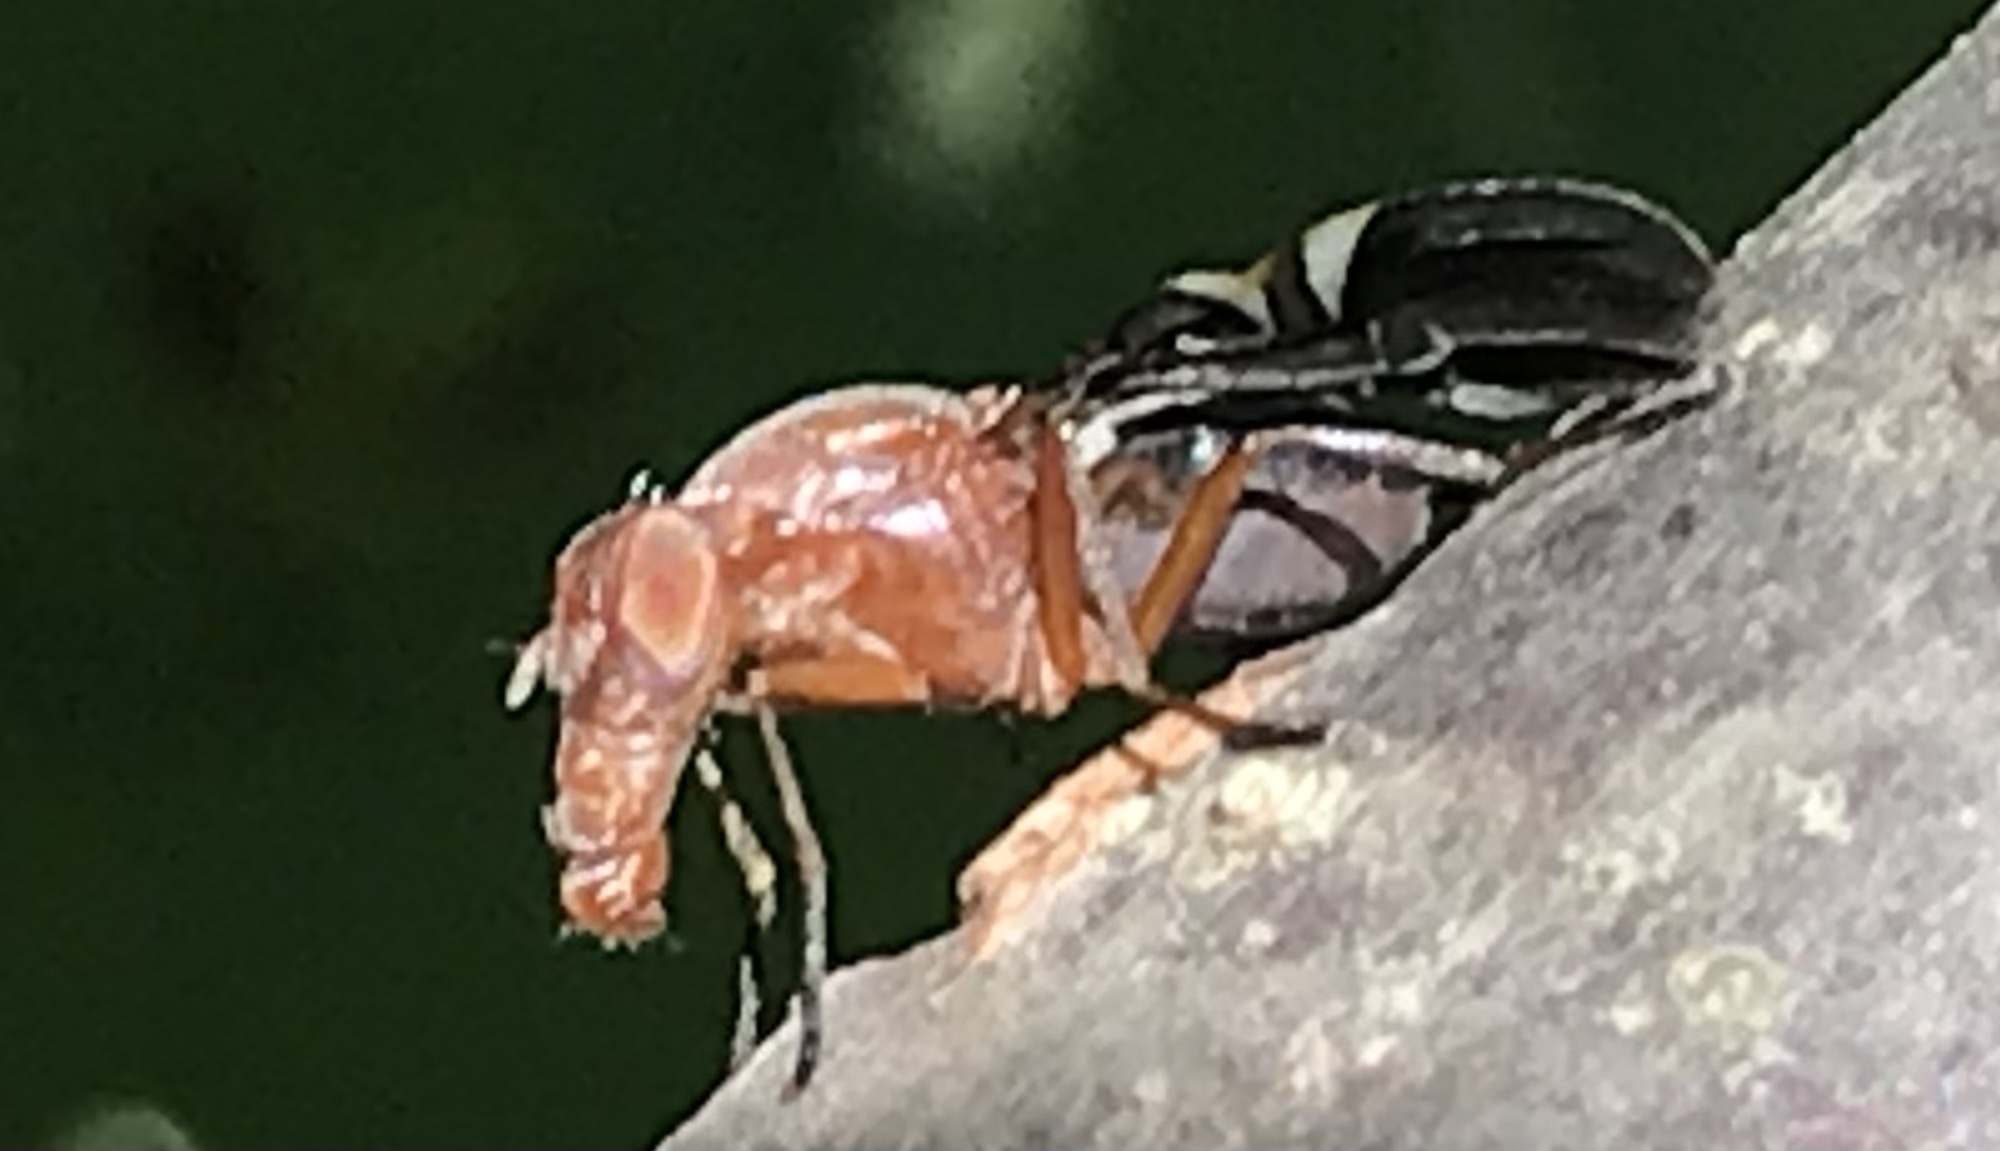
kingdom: Animalia
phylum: Arthropoda
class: Insecta
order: Diptera
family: Ulidiidae
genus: Delphinia
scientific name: Delphinia picta
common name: Common picture-winged fly
